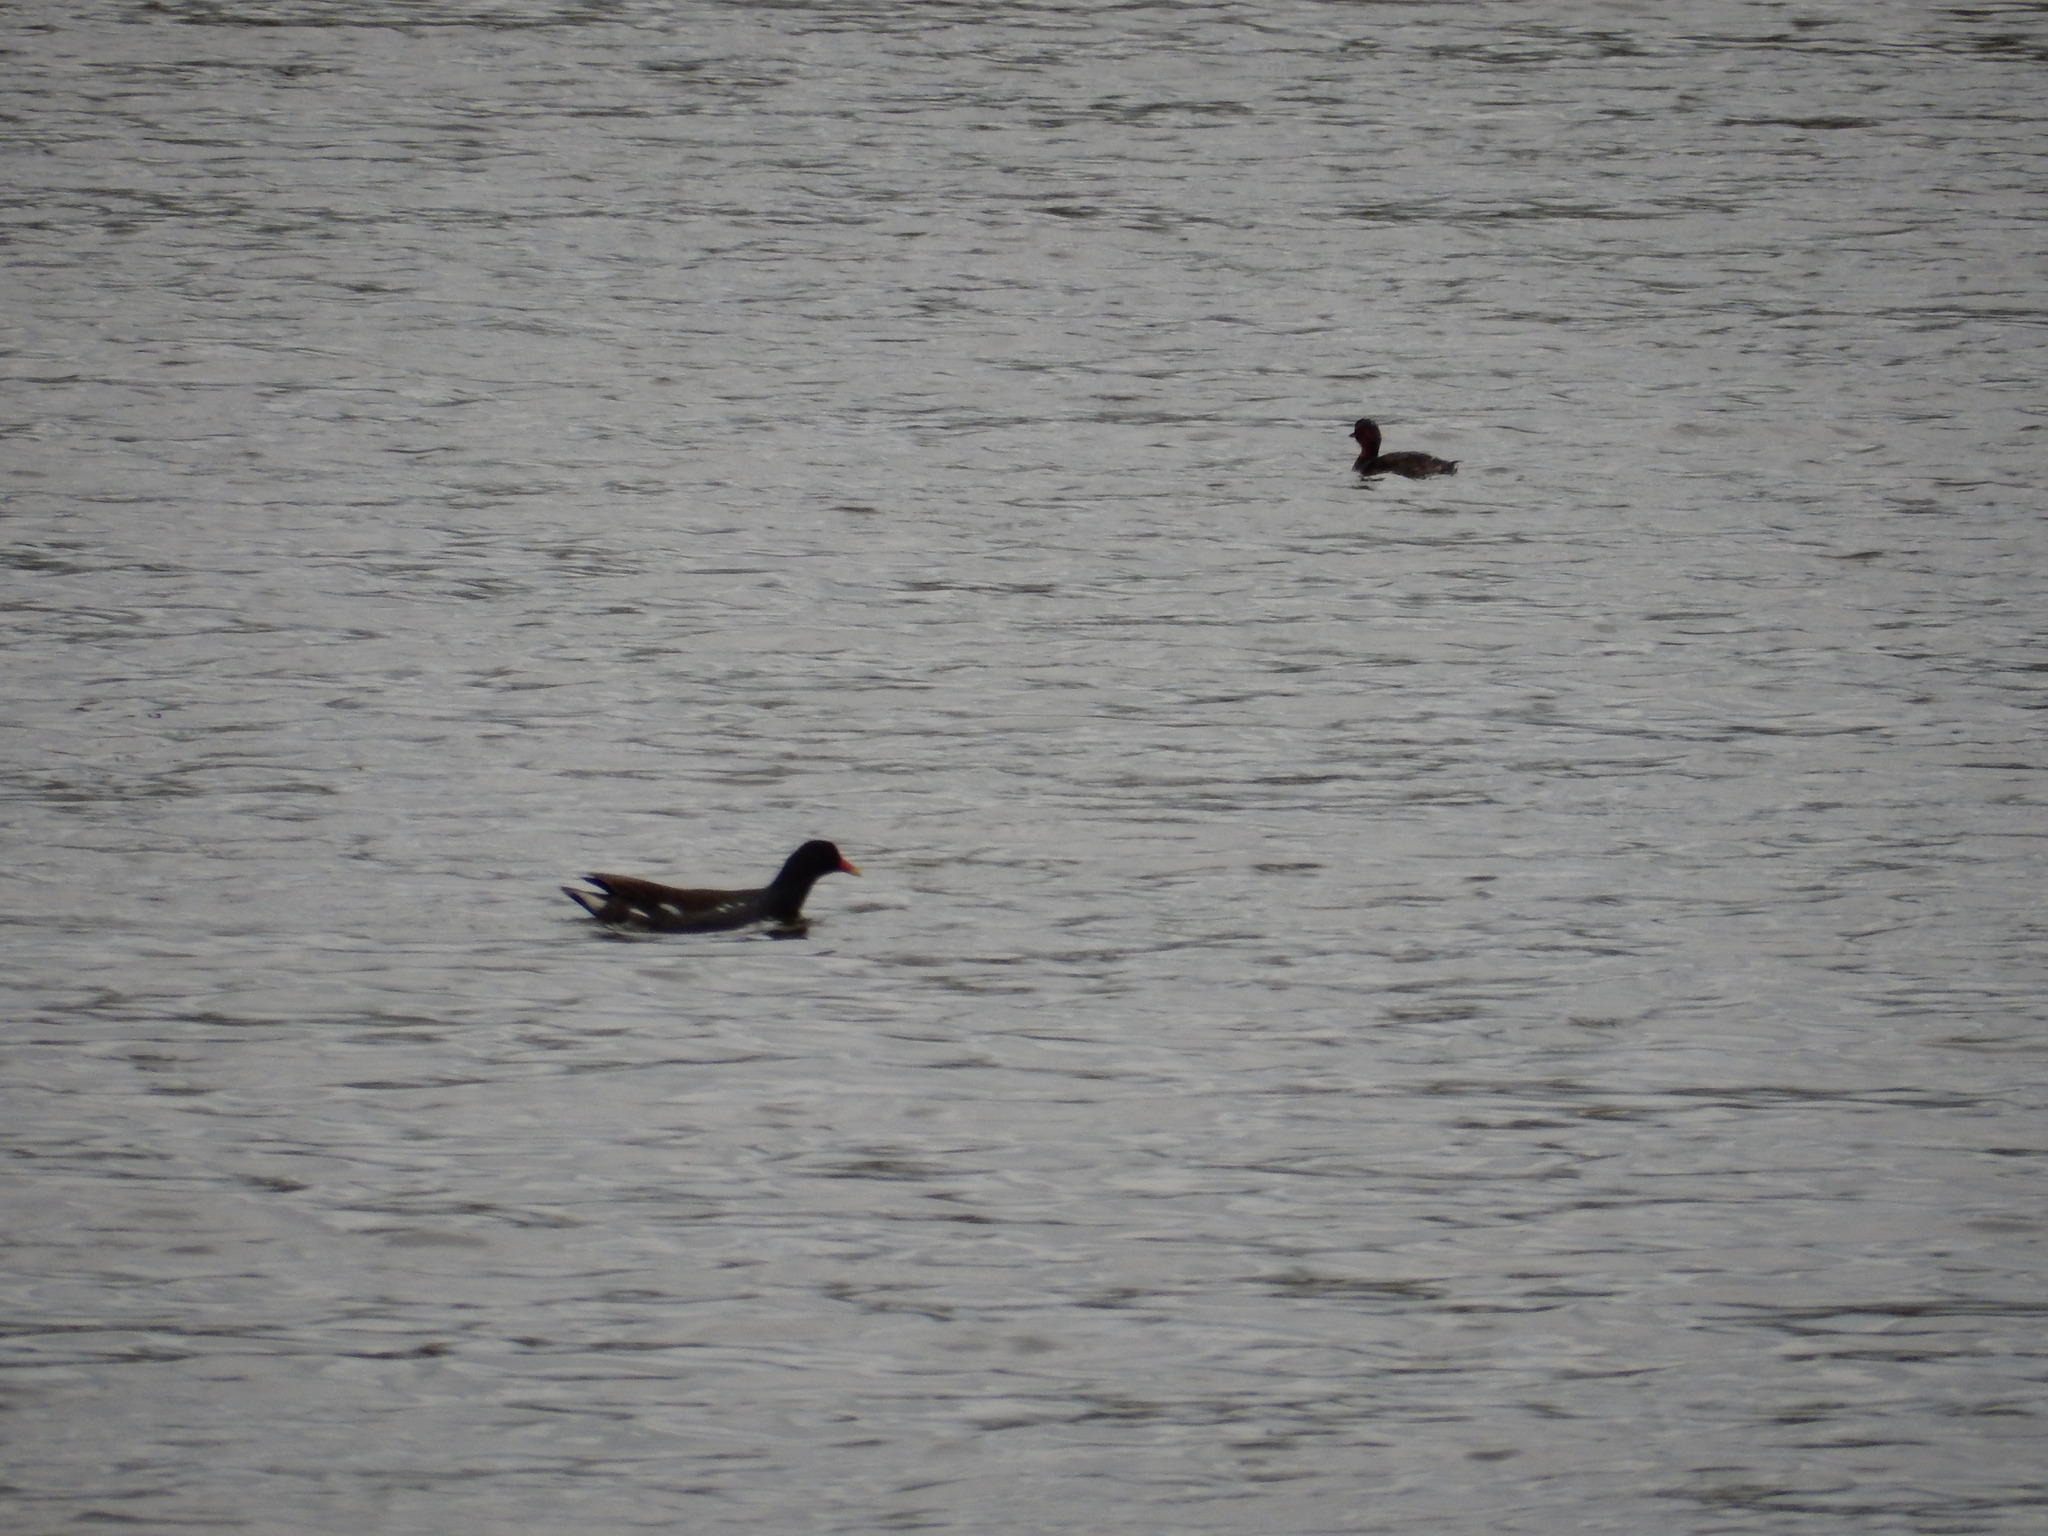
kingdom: Animalia
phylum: Chordata
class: Aves
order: Gruiformes
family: Rallidae
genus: Gallinula
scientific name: Gallinula chloropus
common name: Common moorhen
